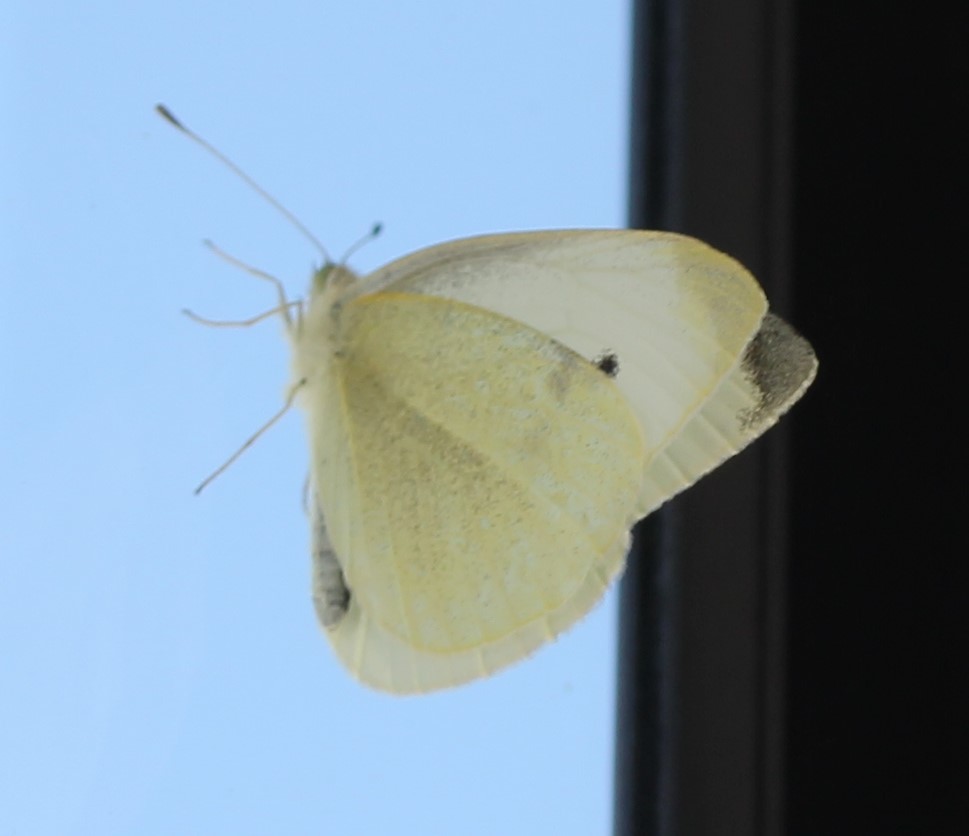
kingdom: Animalia
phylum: Arthropoda
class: Insecta
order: Lepidoptera
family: Pieridae
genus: Pieris
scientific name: Pieris rapae
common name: Small white
